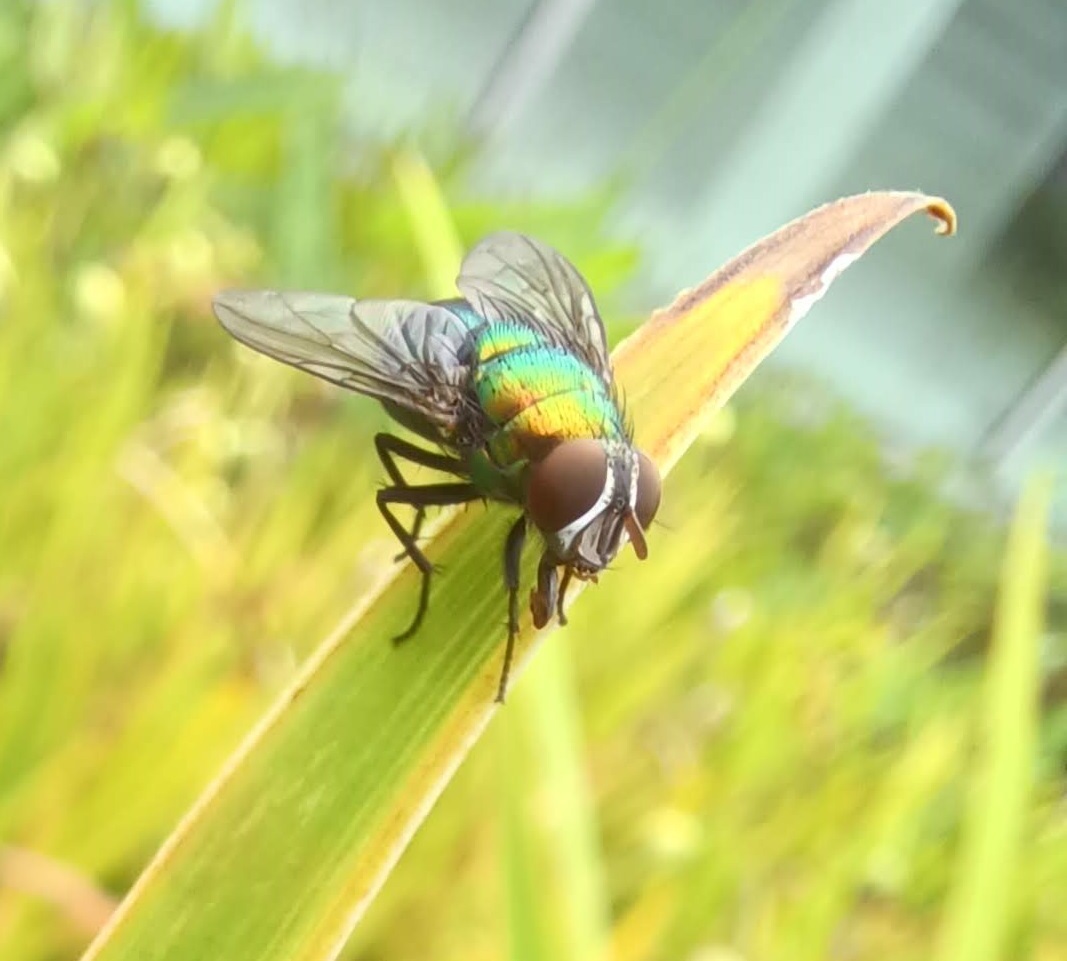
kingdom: Animalia
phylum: Arthropoda
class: Insecta
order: Diptera
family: Calliphoridae
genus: Lucilia
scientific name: Lucilia caeruleiviridis
